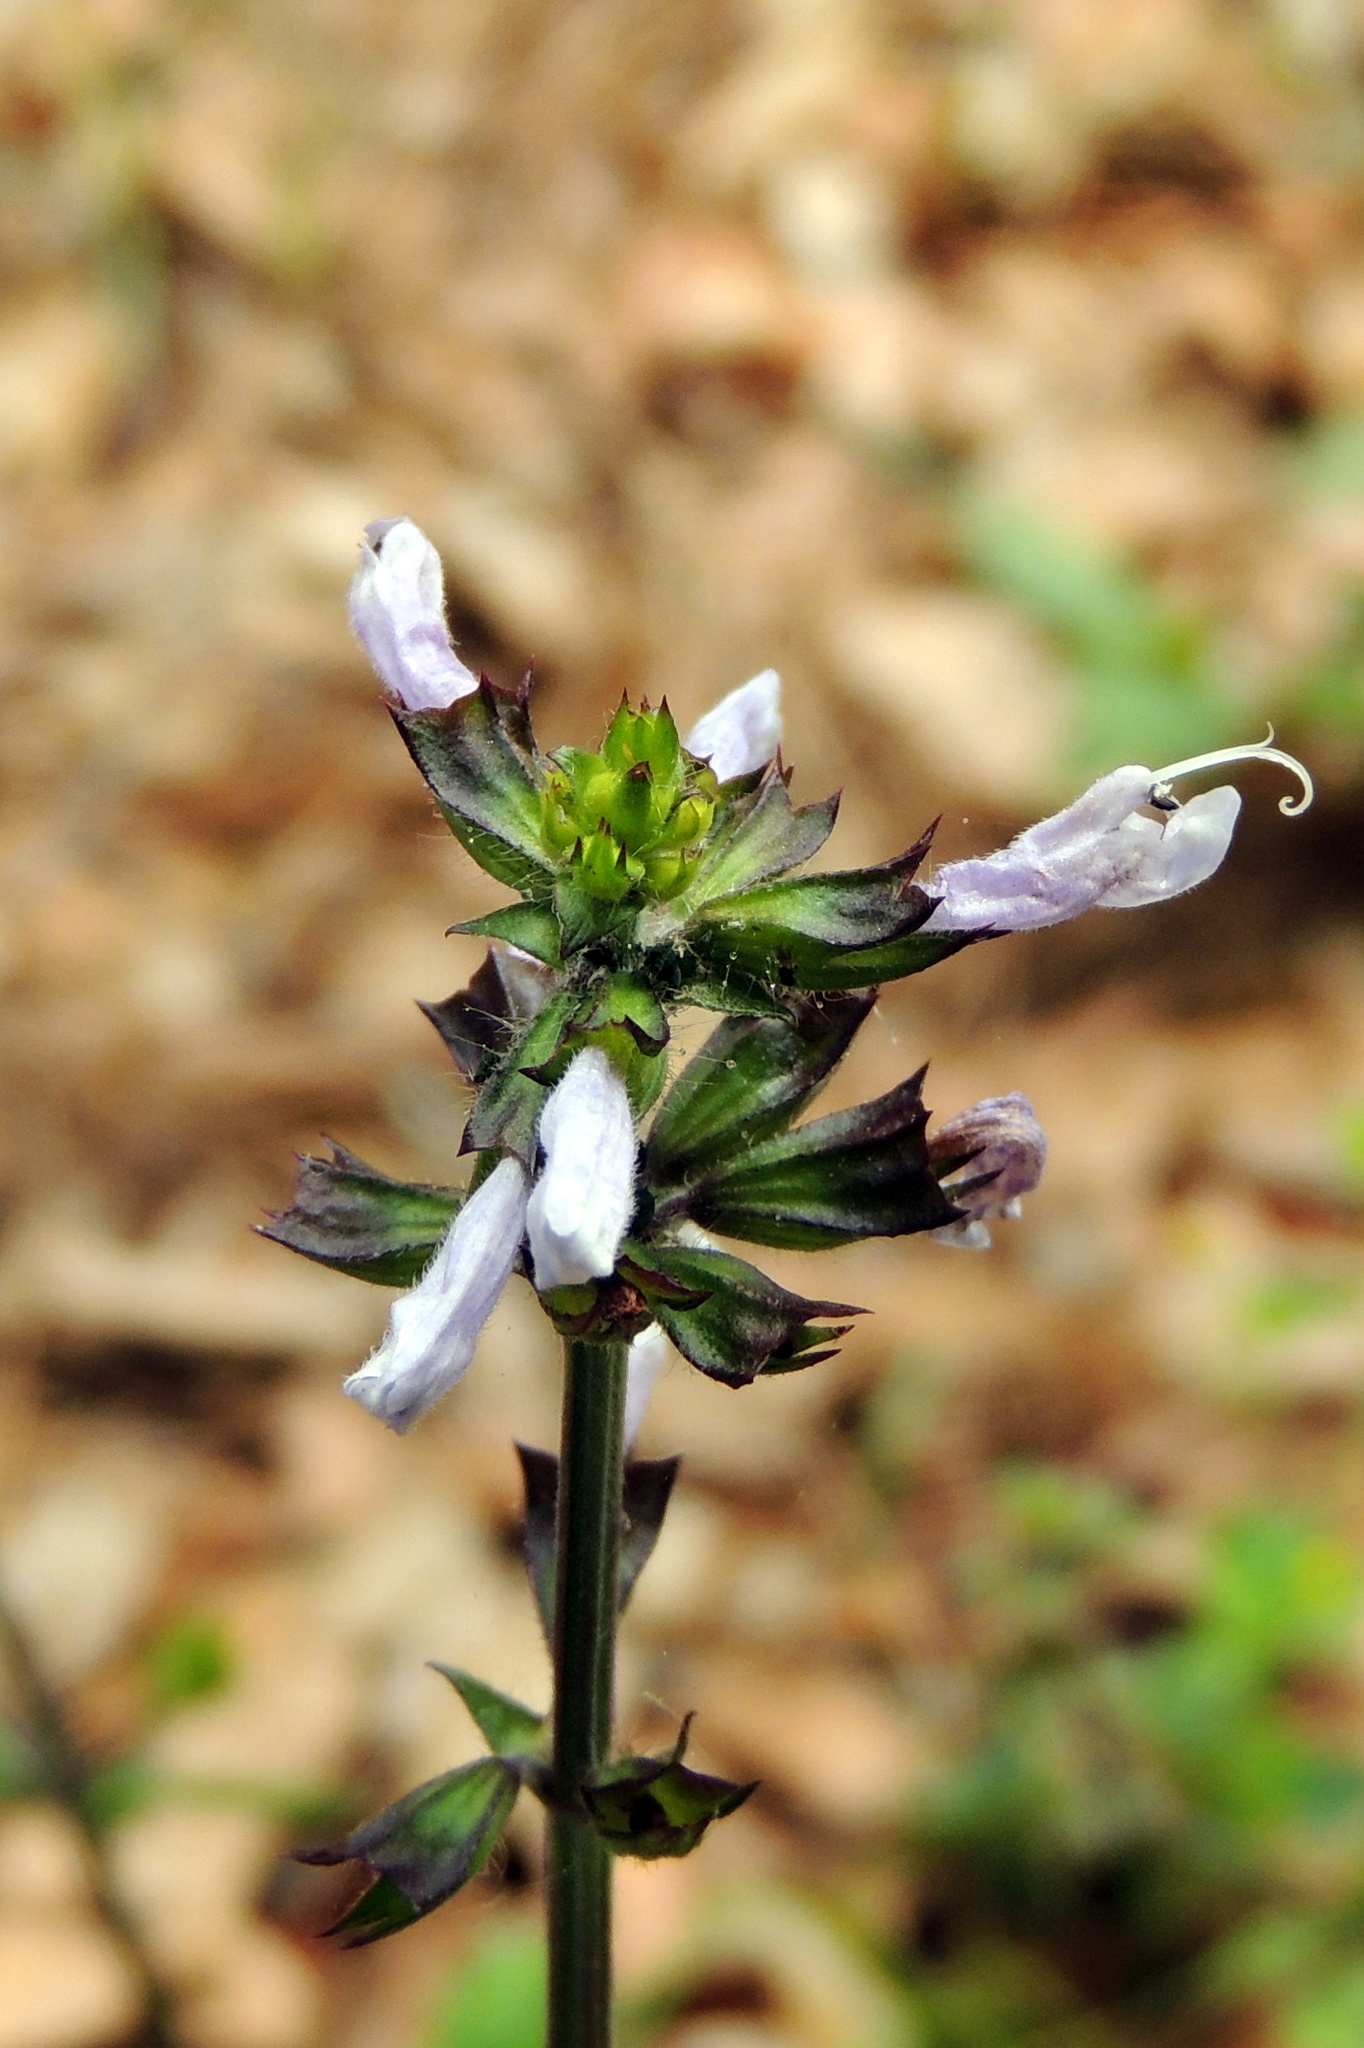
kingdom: Plantae
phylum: Tracheophyta
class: Magnoliopsida
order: Lamiales
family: Lamiaceae
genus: Salvia
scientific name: Salvia lyrata
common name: Cancerweed
